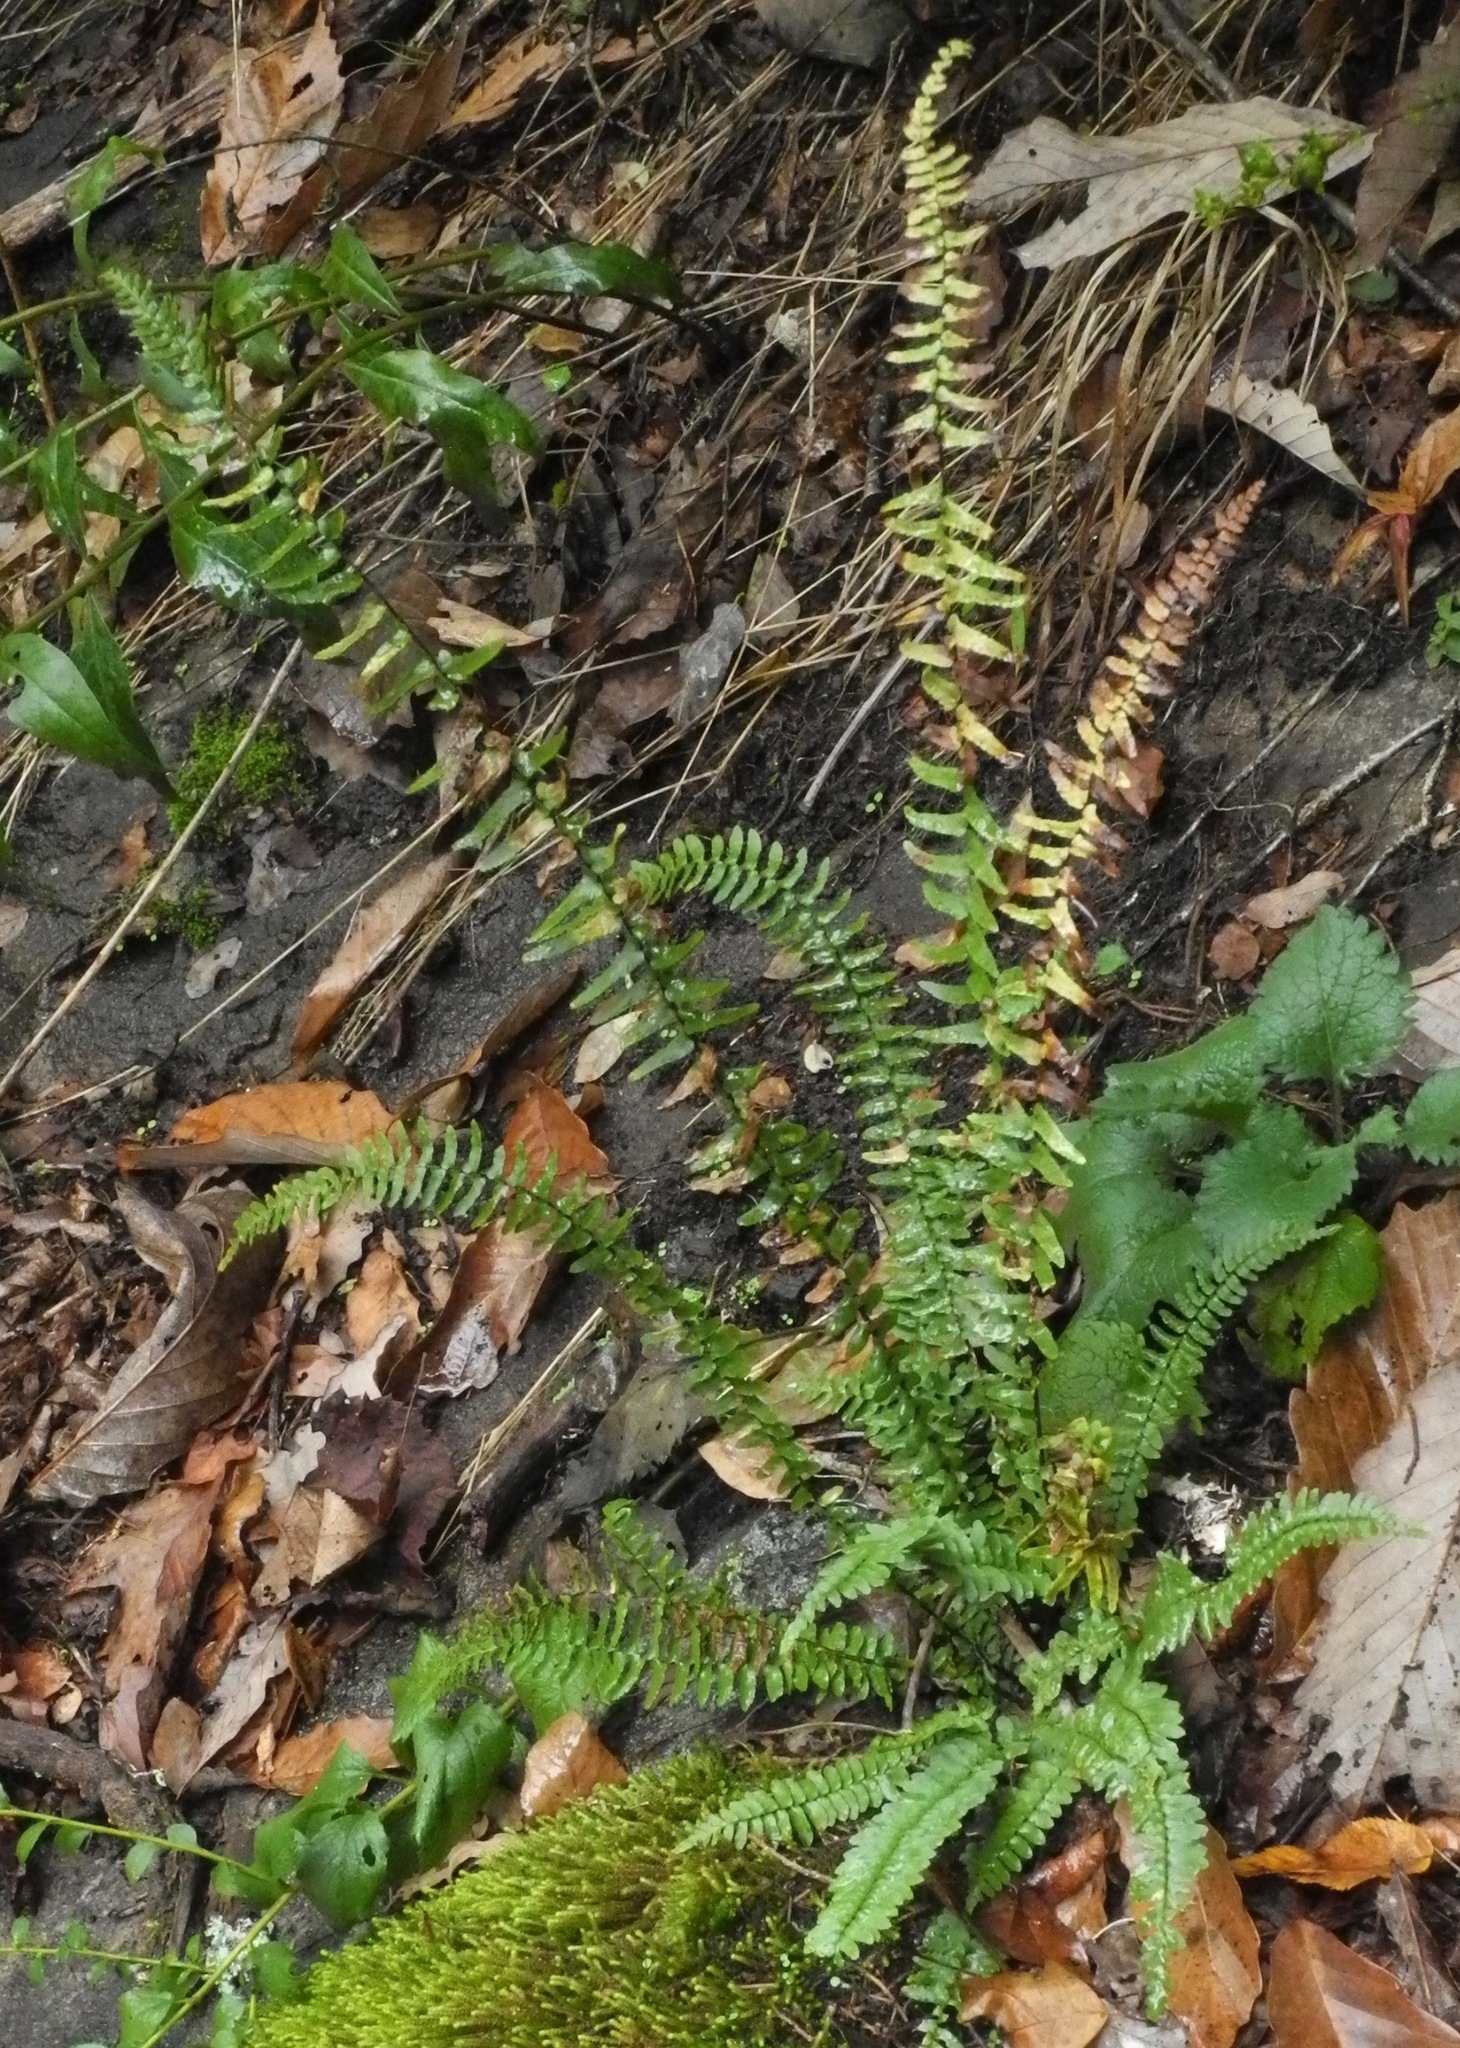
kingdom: Plantae
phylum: Tracheophyta
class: Polypodiopsida
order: Polypodiales
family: Aspleniaceae
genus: Asplenium
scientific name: Asplenium platyneuron
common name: Ebony spleenwort
